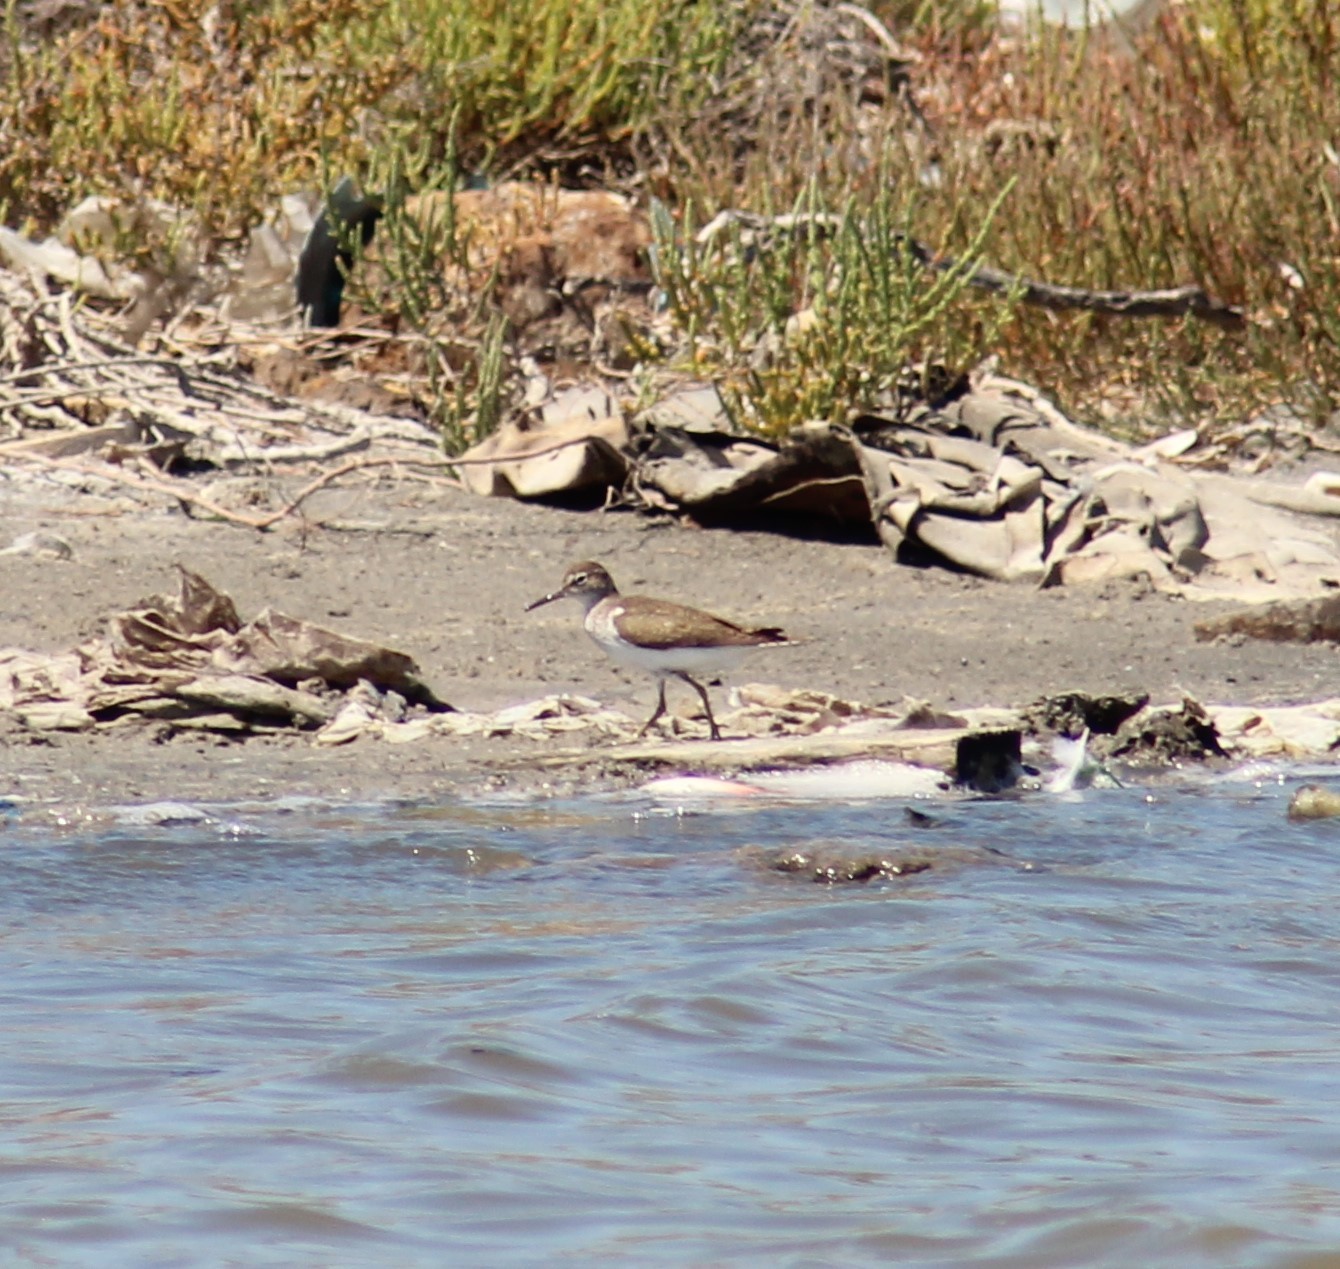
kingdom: Animalia
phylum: Chordata
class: Aves
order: Charadriiformes
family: Scolopacidae
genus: Actitis
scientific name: Actitis hypoleucos
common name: Common sandpiper
